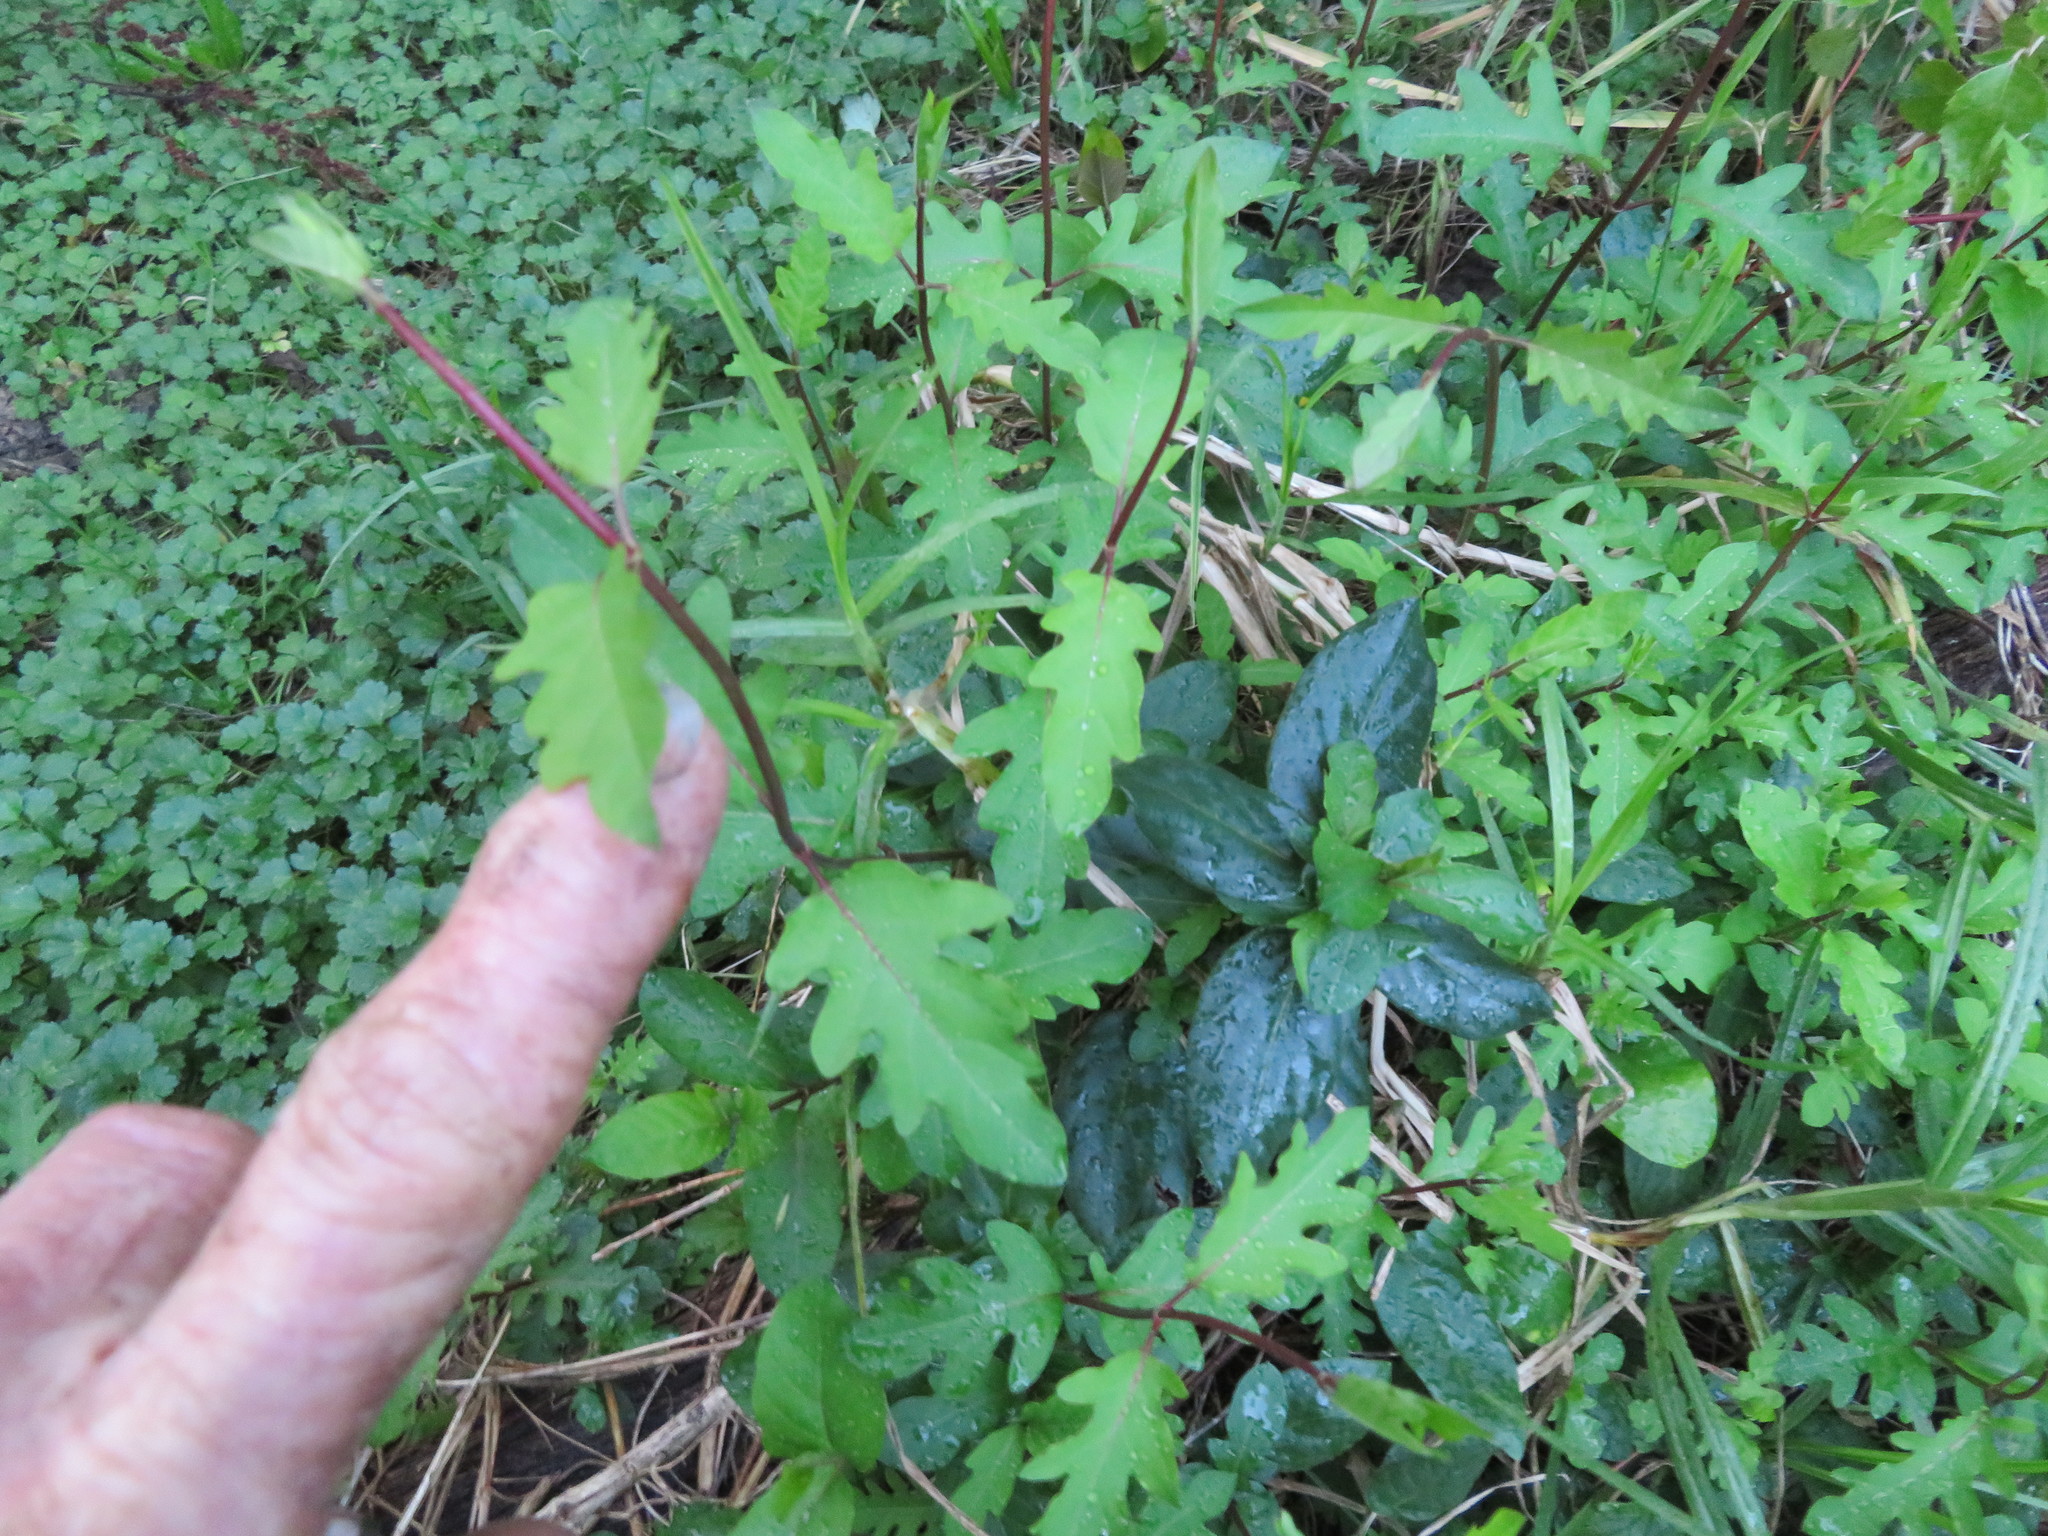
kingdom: Plantae
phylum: Tracheophyta
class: Magnoliopsida
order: Dipsacales
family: Caprifoliaceae
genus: Lonicera
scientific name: Lonicera japonica
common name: Japanese honeysuckle
